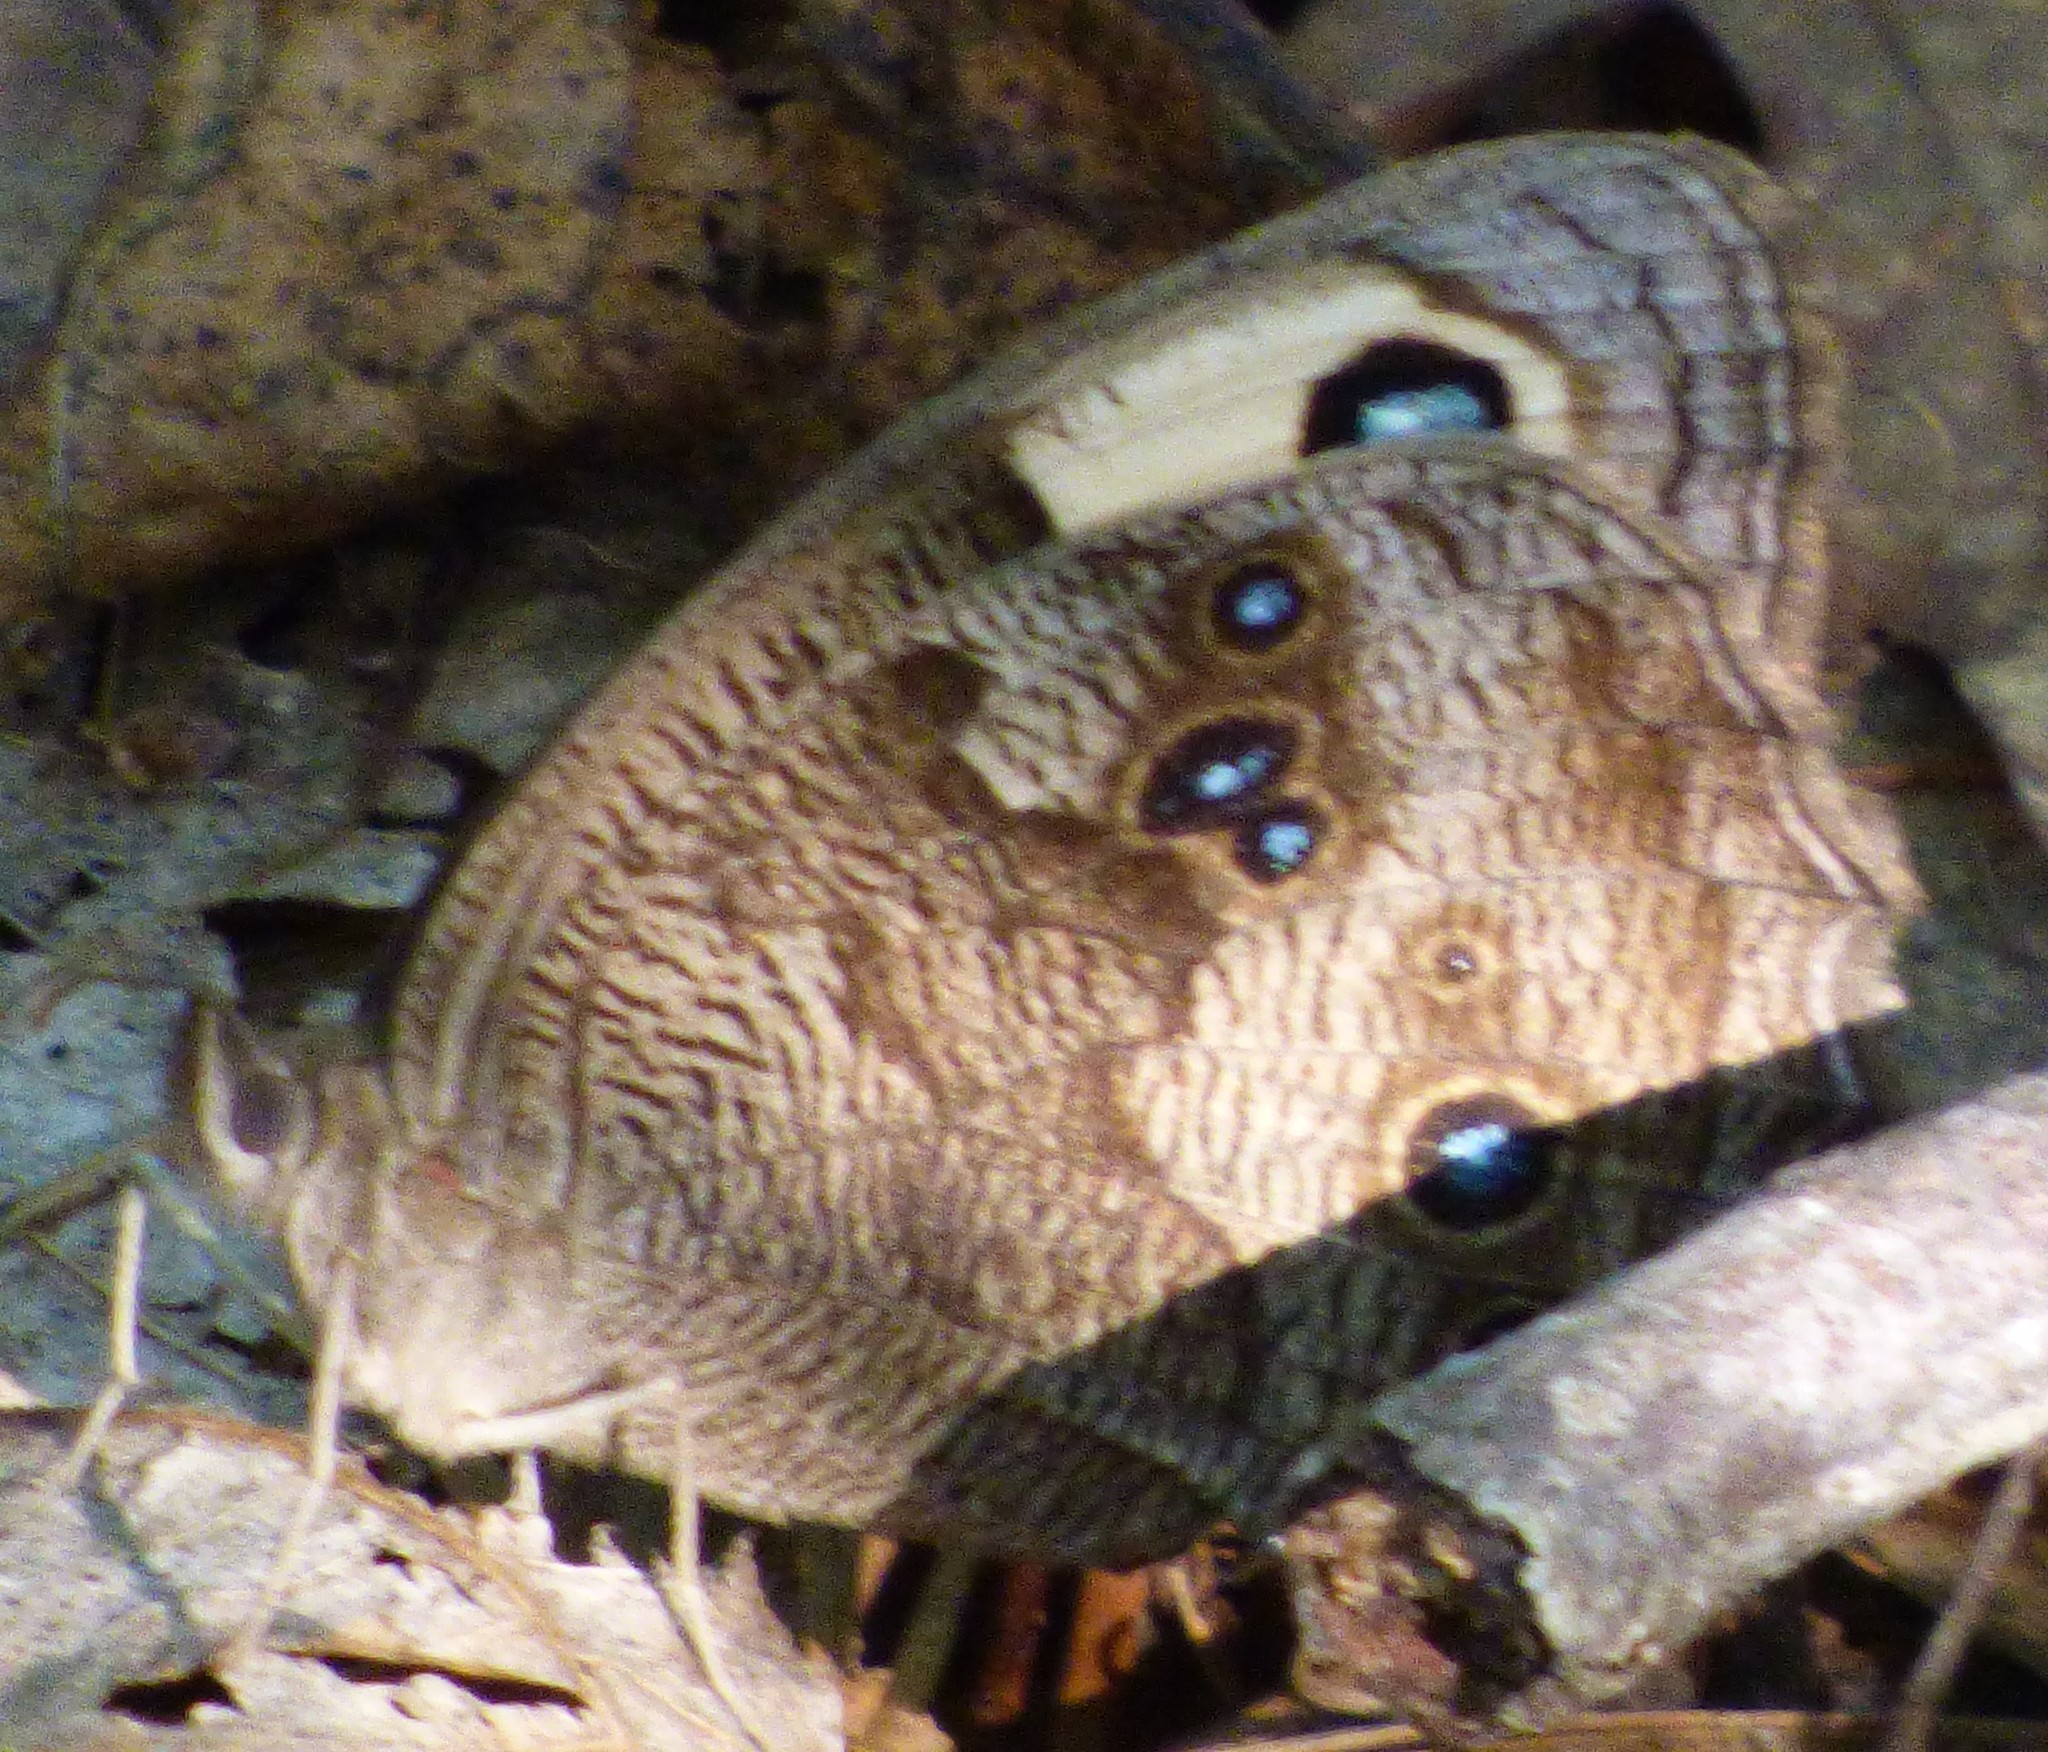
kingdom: Animalia
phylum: Arthropoda
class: Insecta
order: Lepidoptera
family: Nymphalidae
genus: Cercyonis
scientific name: Cercyonis pegala
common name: Common wood-nymph
